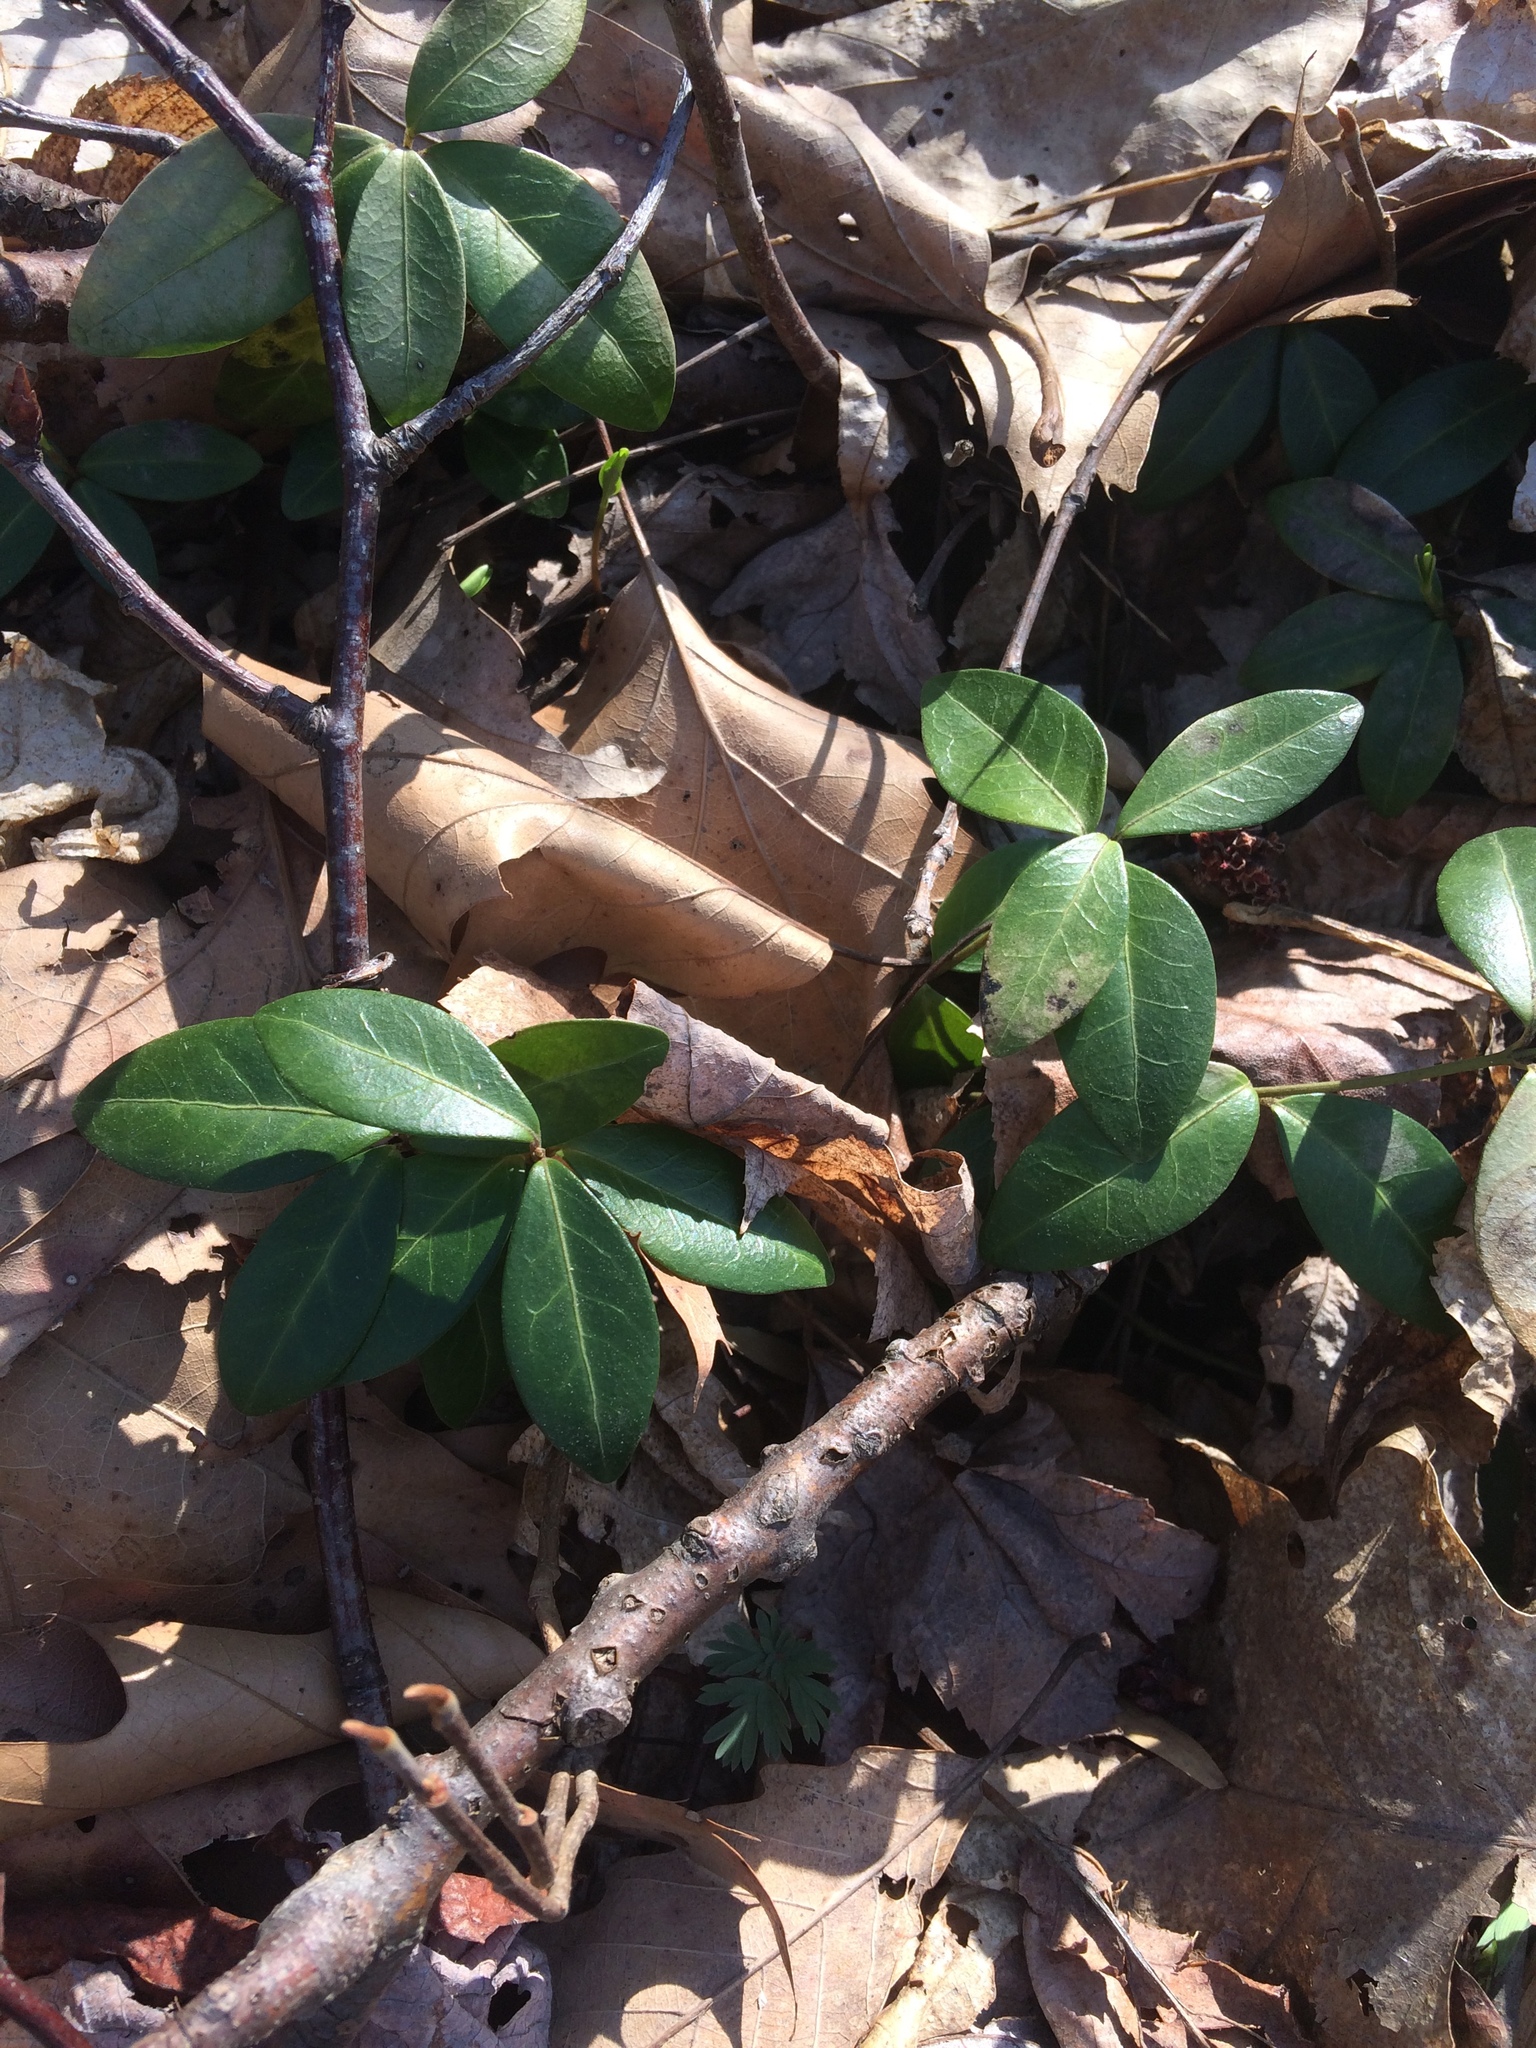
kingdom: Plantae
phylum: Tracheophyta
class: Magnoliopsida
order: Gentianales
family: Apocynaceae
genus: Vinca
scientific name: Vinca minor
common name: Lesser periwinkle
